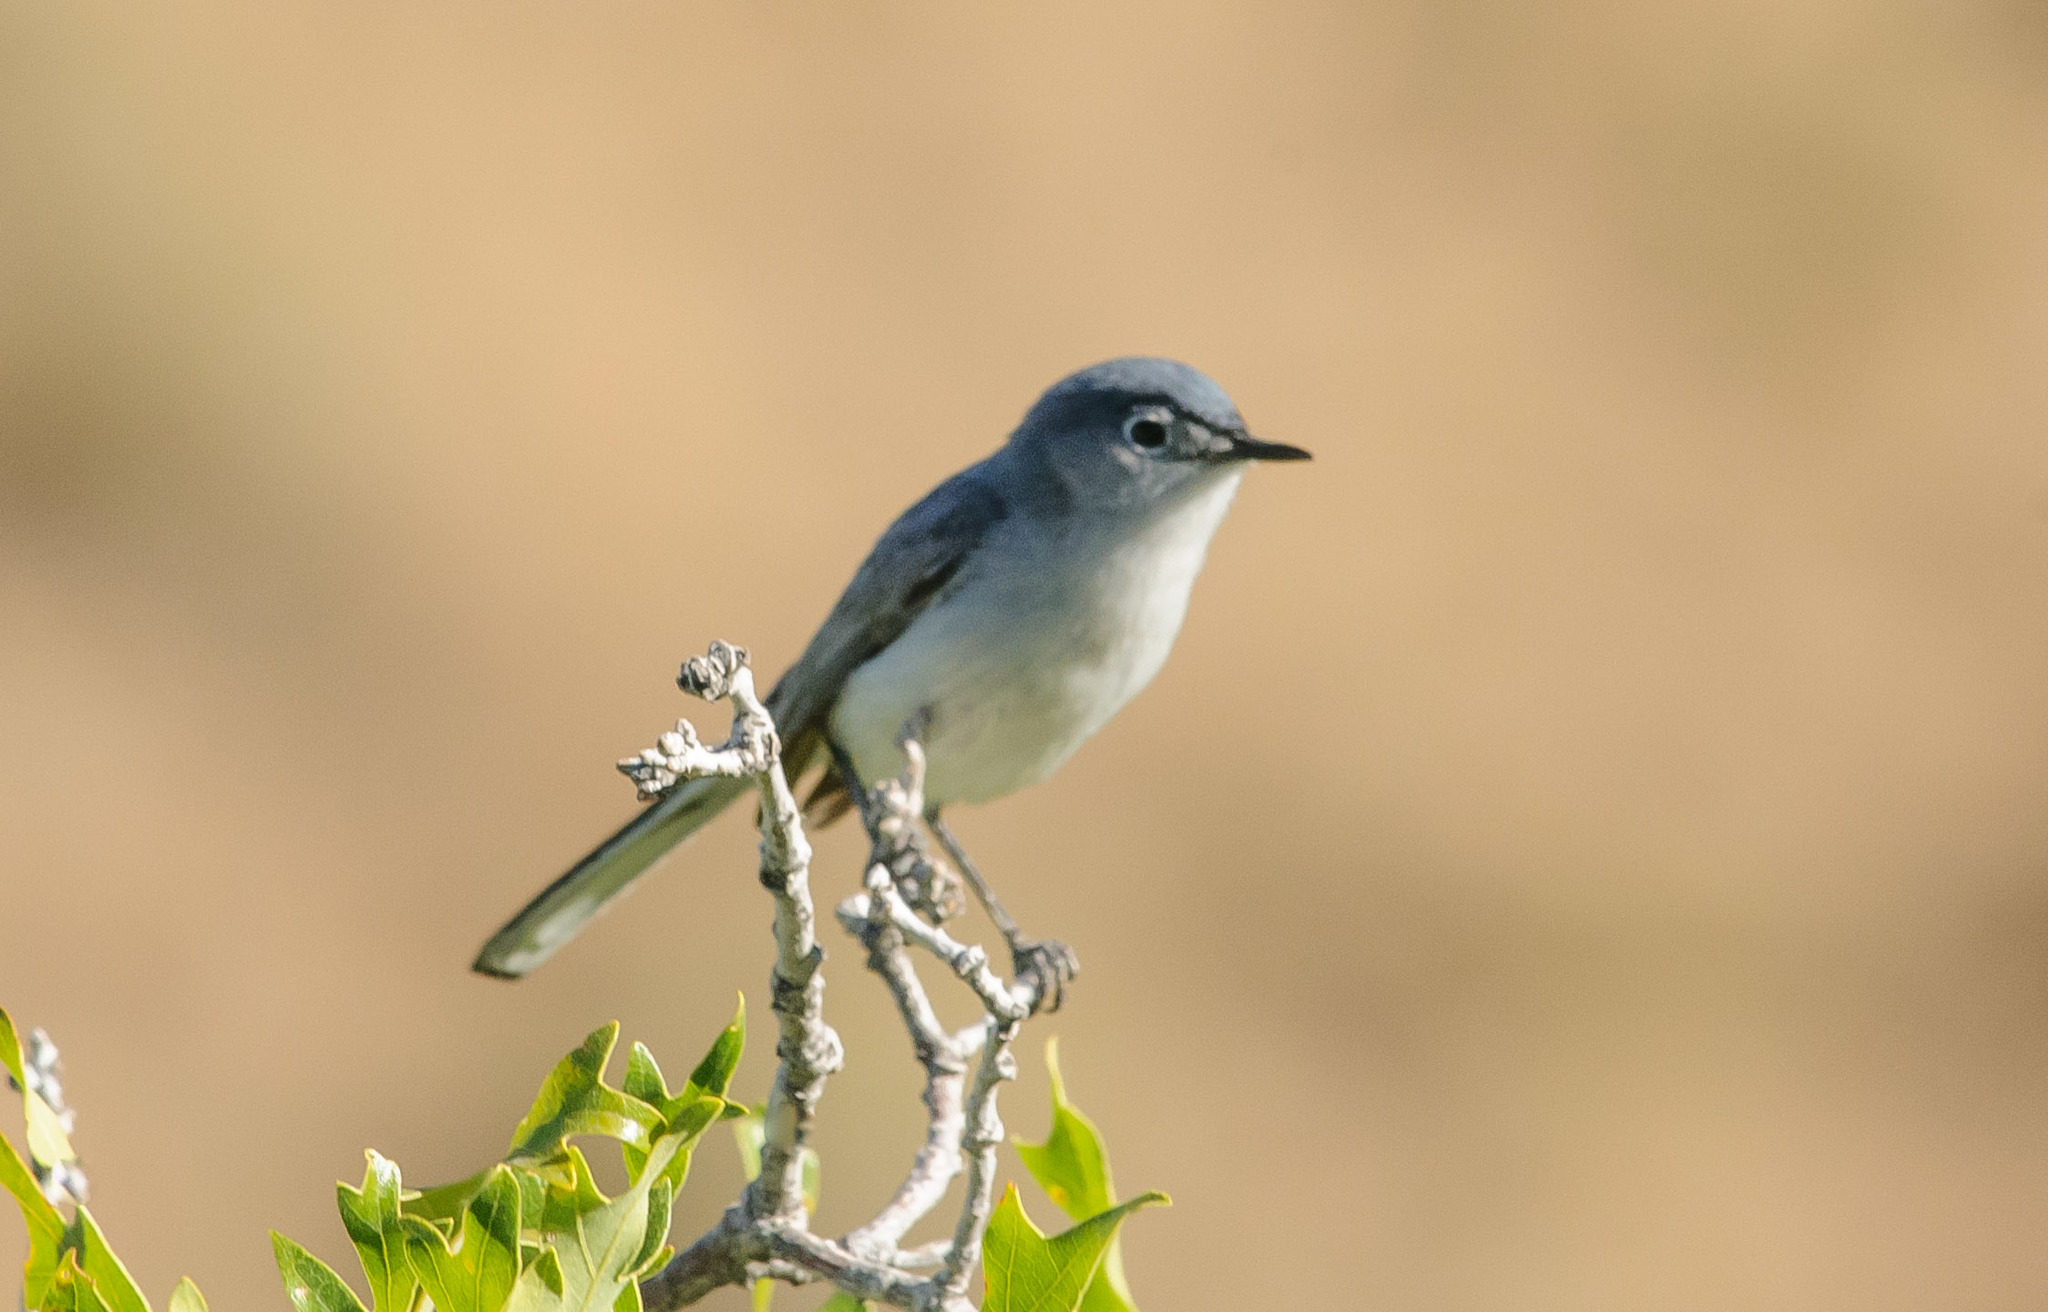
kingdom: Animalia
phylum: Chordata
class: Aves
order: Passeriformes
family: Polioptilidae
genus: Polioptila
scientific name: Polioptila caerulea
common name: Blue-gray gnatcatcher
